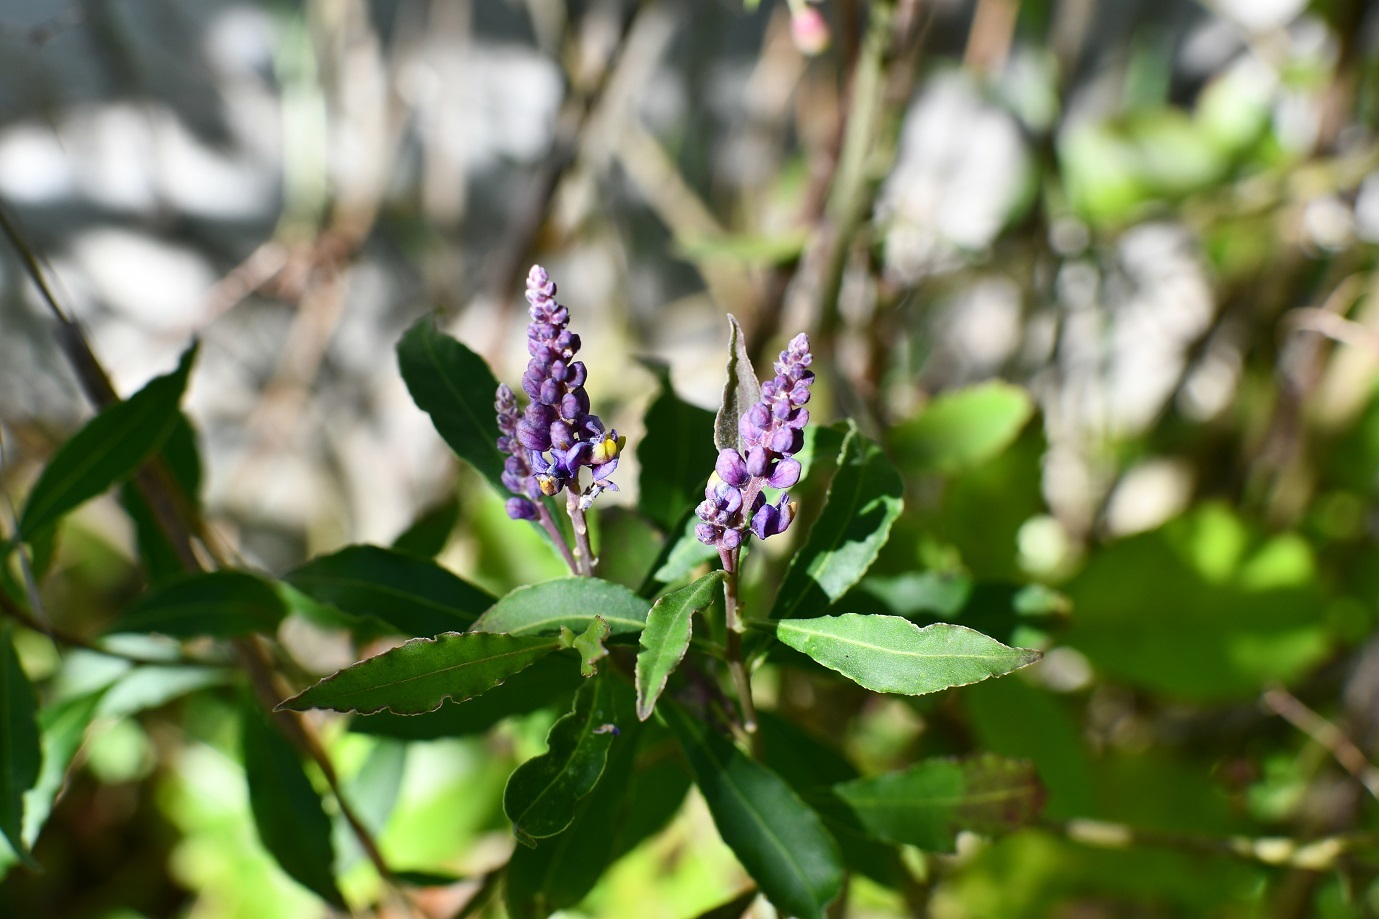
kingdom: Plantae
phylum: Tracheophyta
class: Magnoliopsida
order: Fabales
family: Polygalaceae
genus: Monnina
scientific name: Monnina xalapensis
